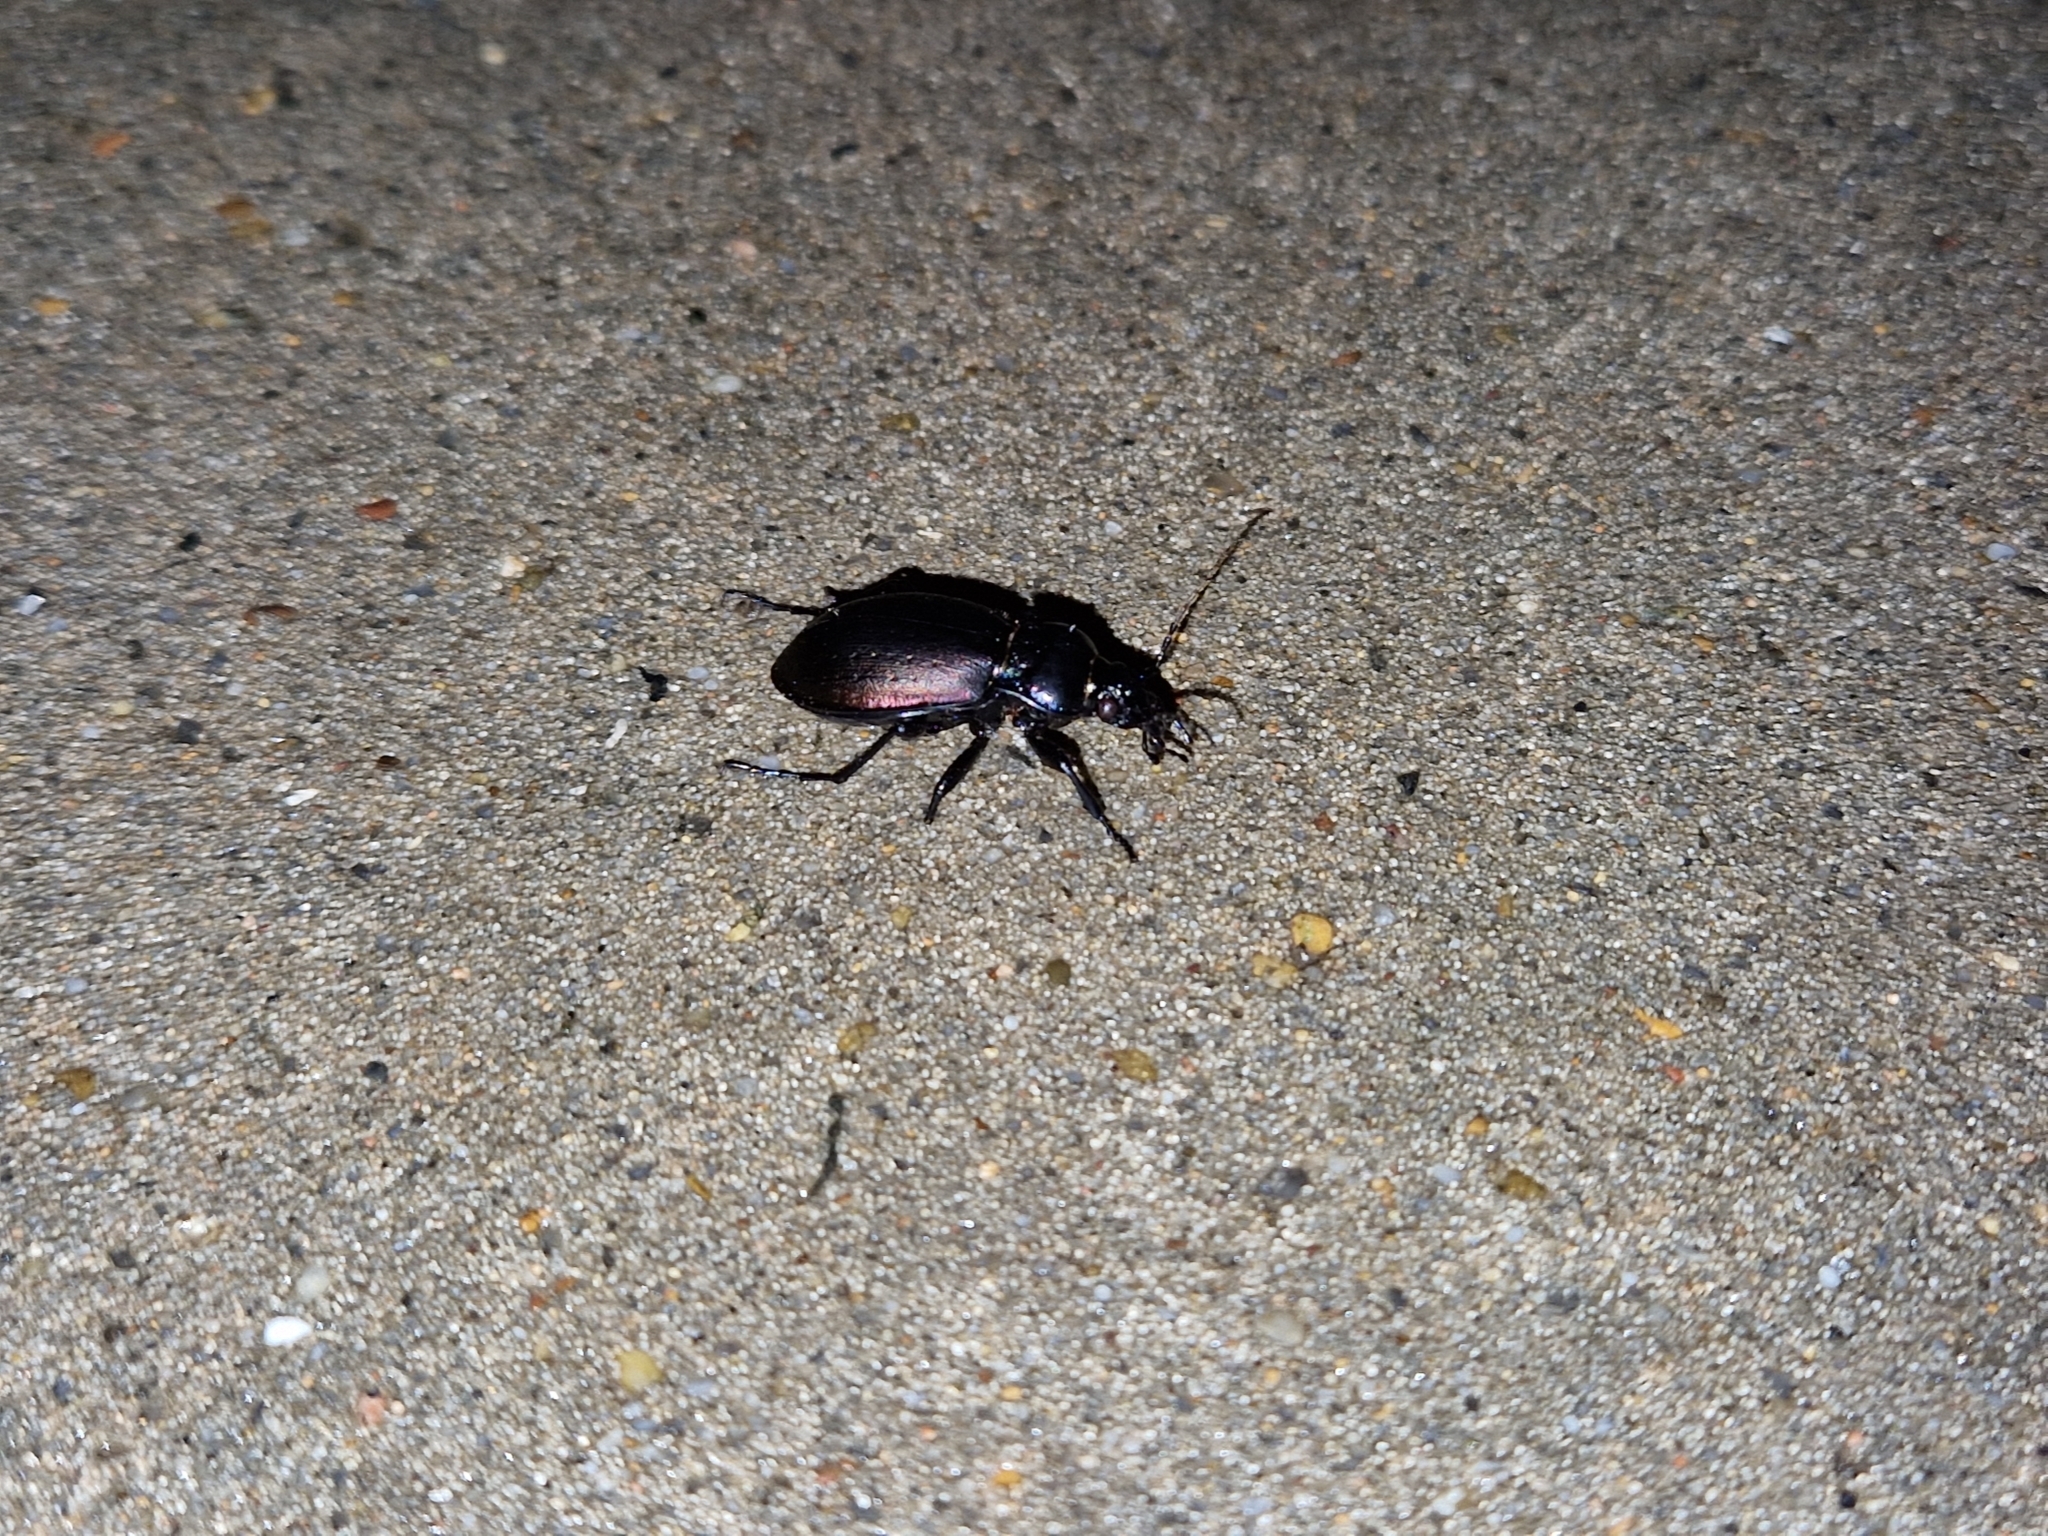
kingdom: Animalia
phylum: Arthropoda
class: Insecta
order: Coleoptera
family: Carabidae
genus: Carabus
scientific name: Carabus nemoralis
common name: European ground beetle
